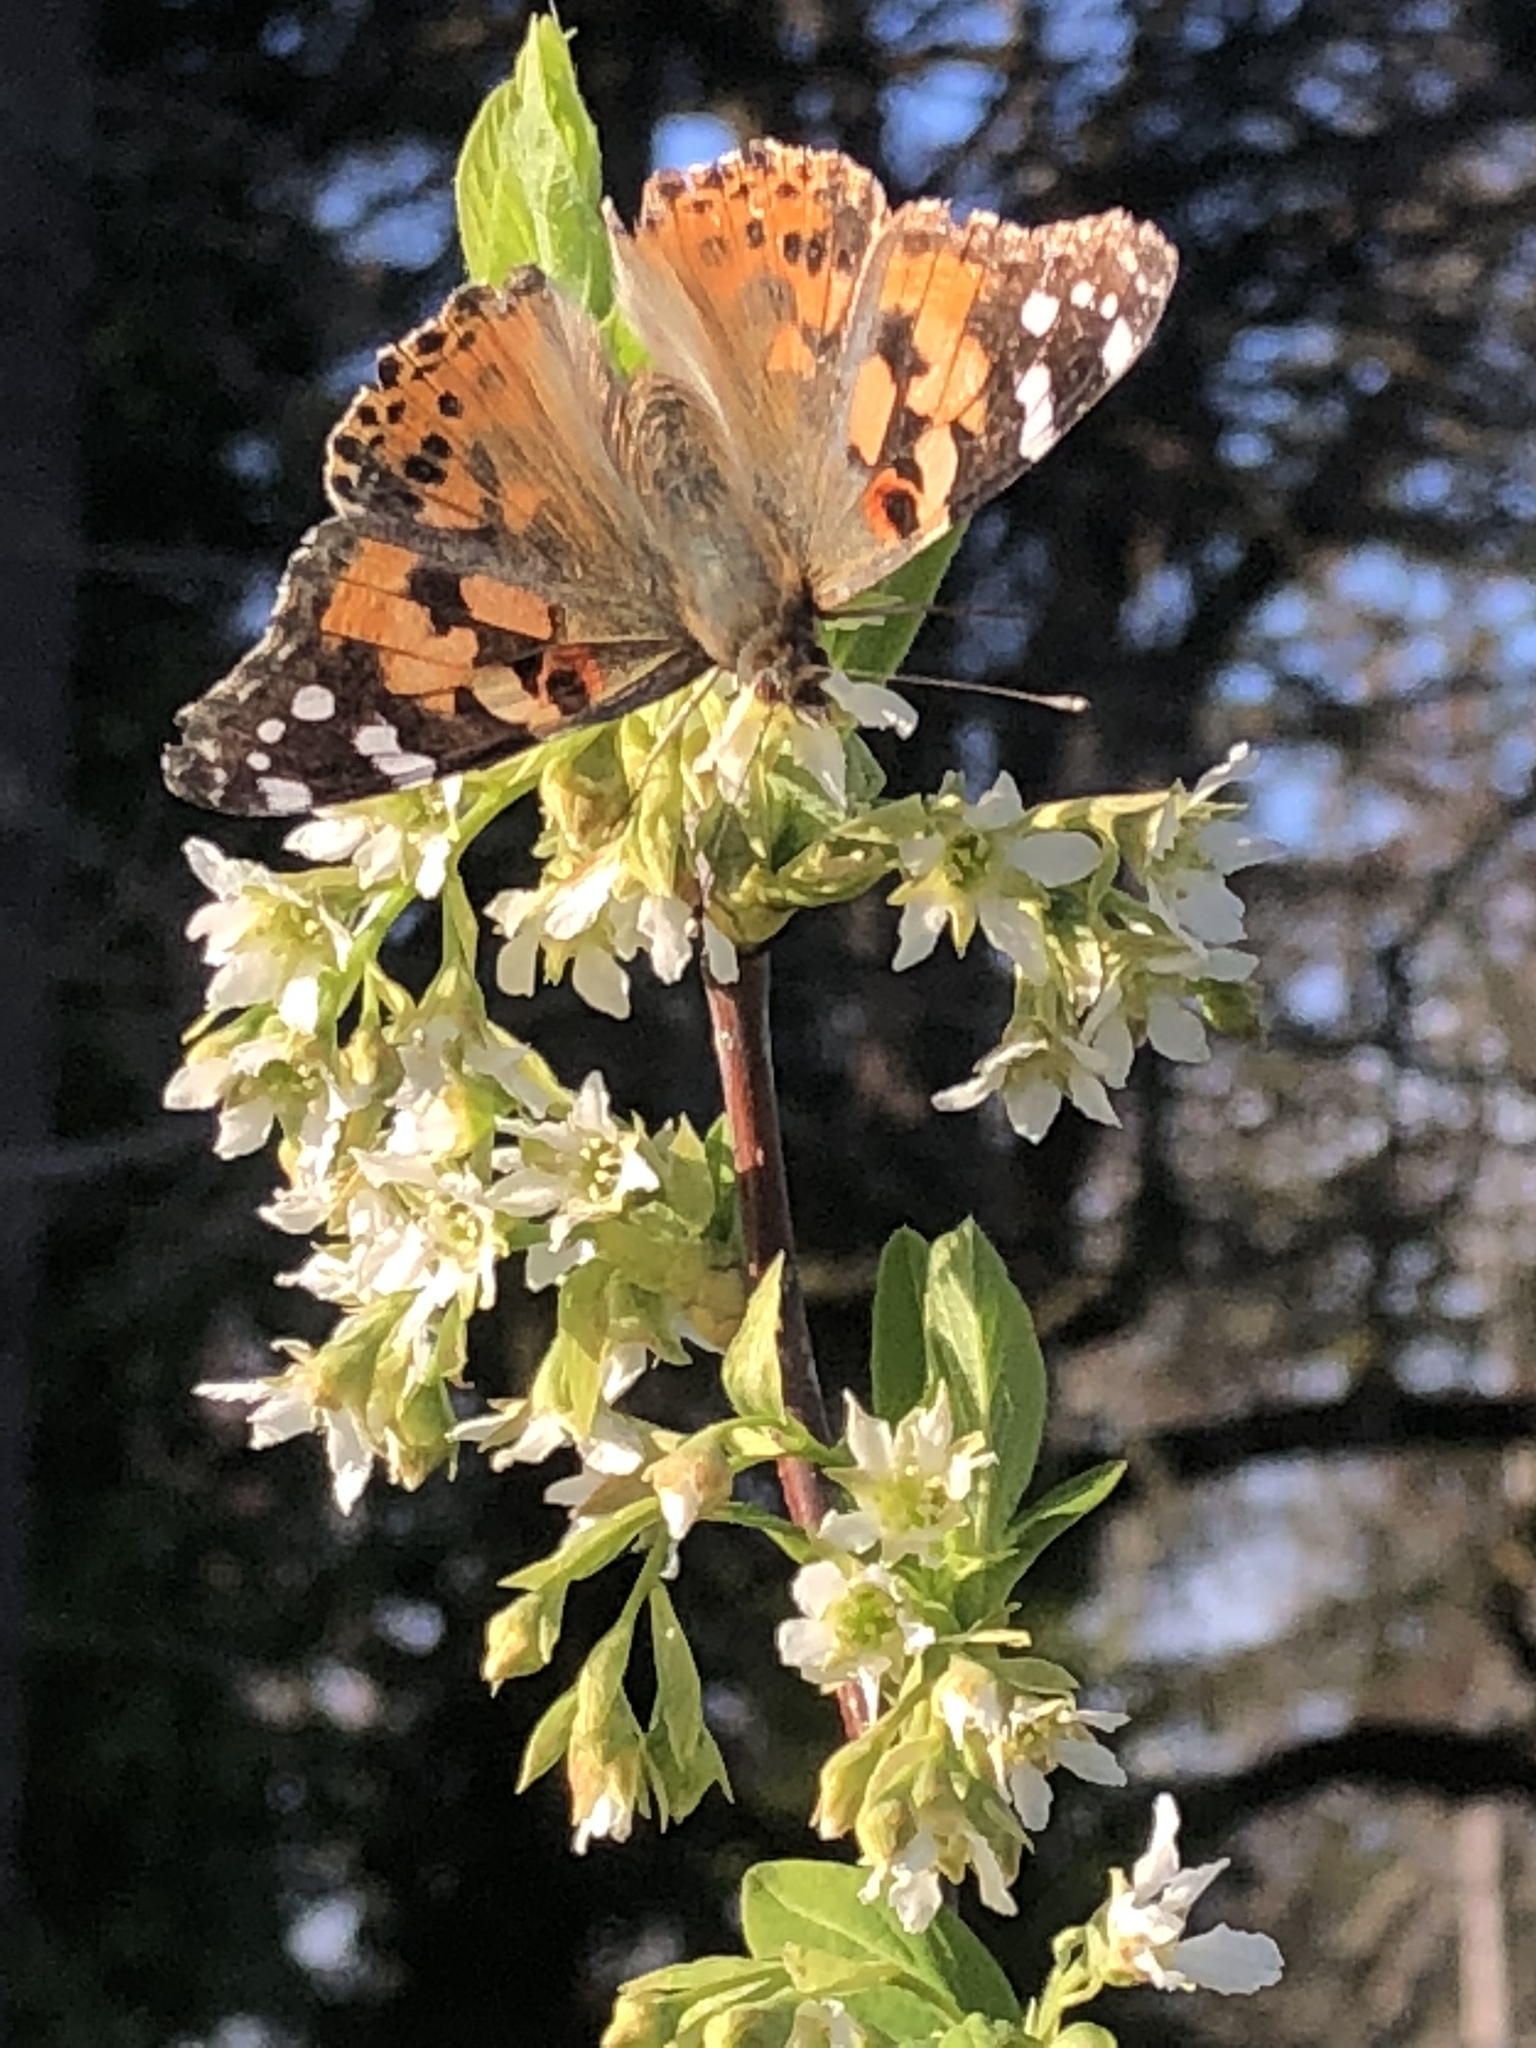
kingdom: Animalia
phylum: Arthropoda
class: Insecta
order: Lepidoptera
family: Nymphalidae
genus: Vanessa
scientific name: Vanessa cardui
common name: Painted lady
